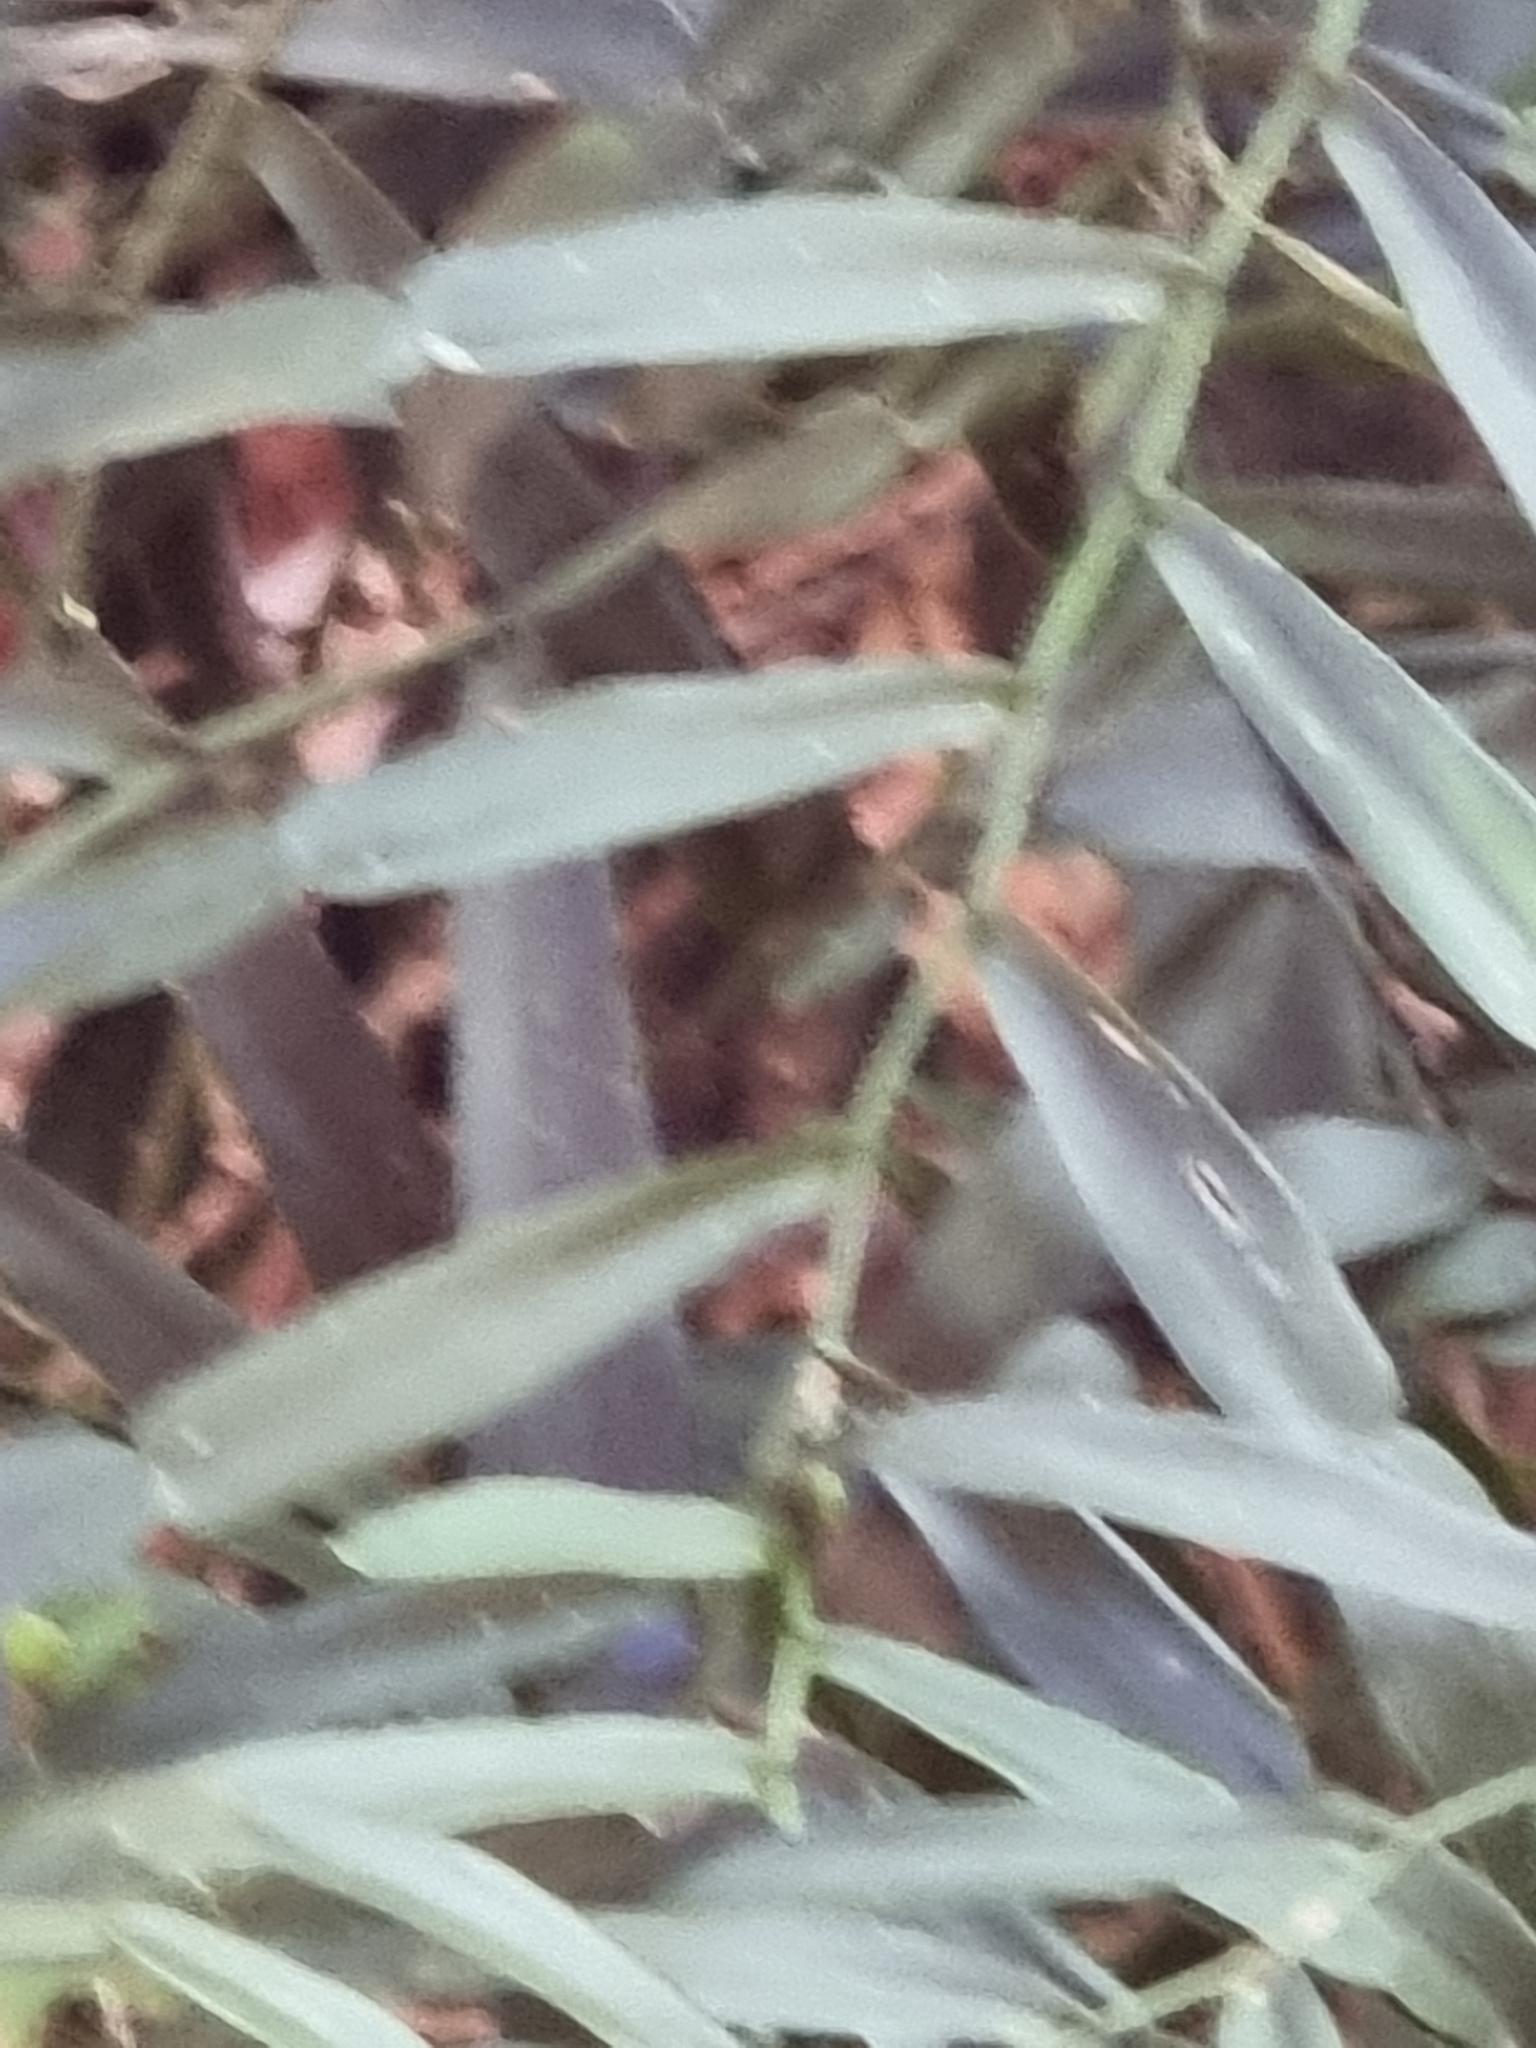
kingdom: Plantae
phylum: Tracheophyta
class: Liliopsida
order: Alismatales
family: Araceae
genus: Pothos
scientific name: Pothos longipes
